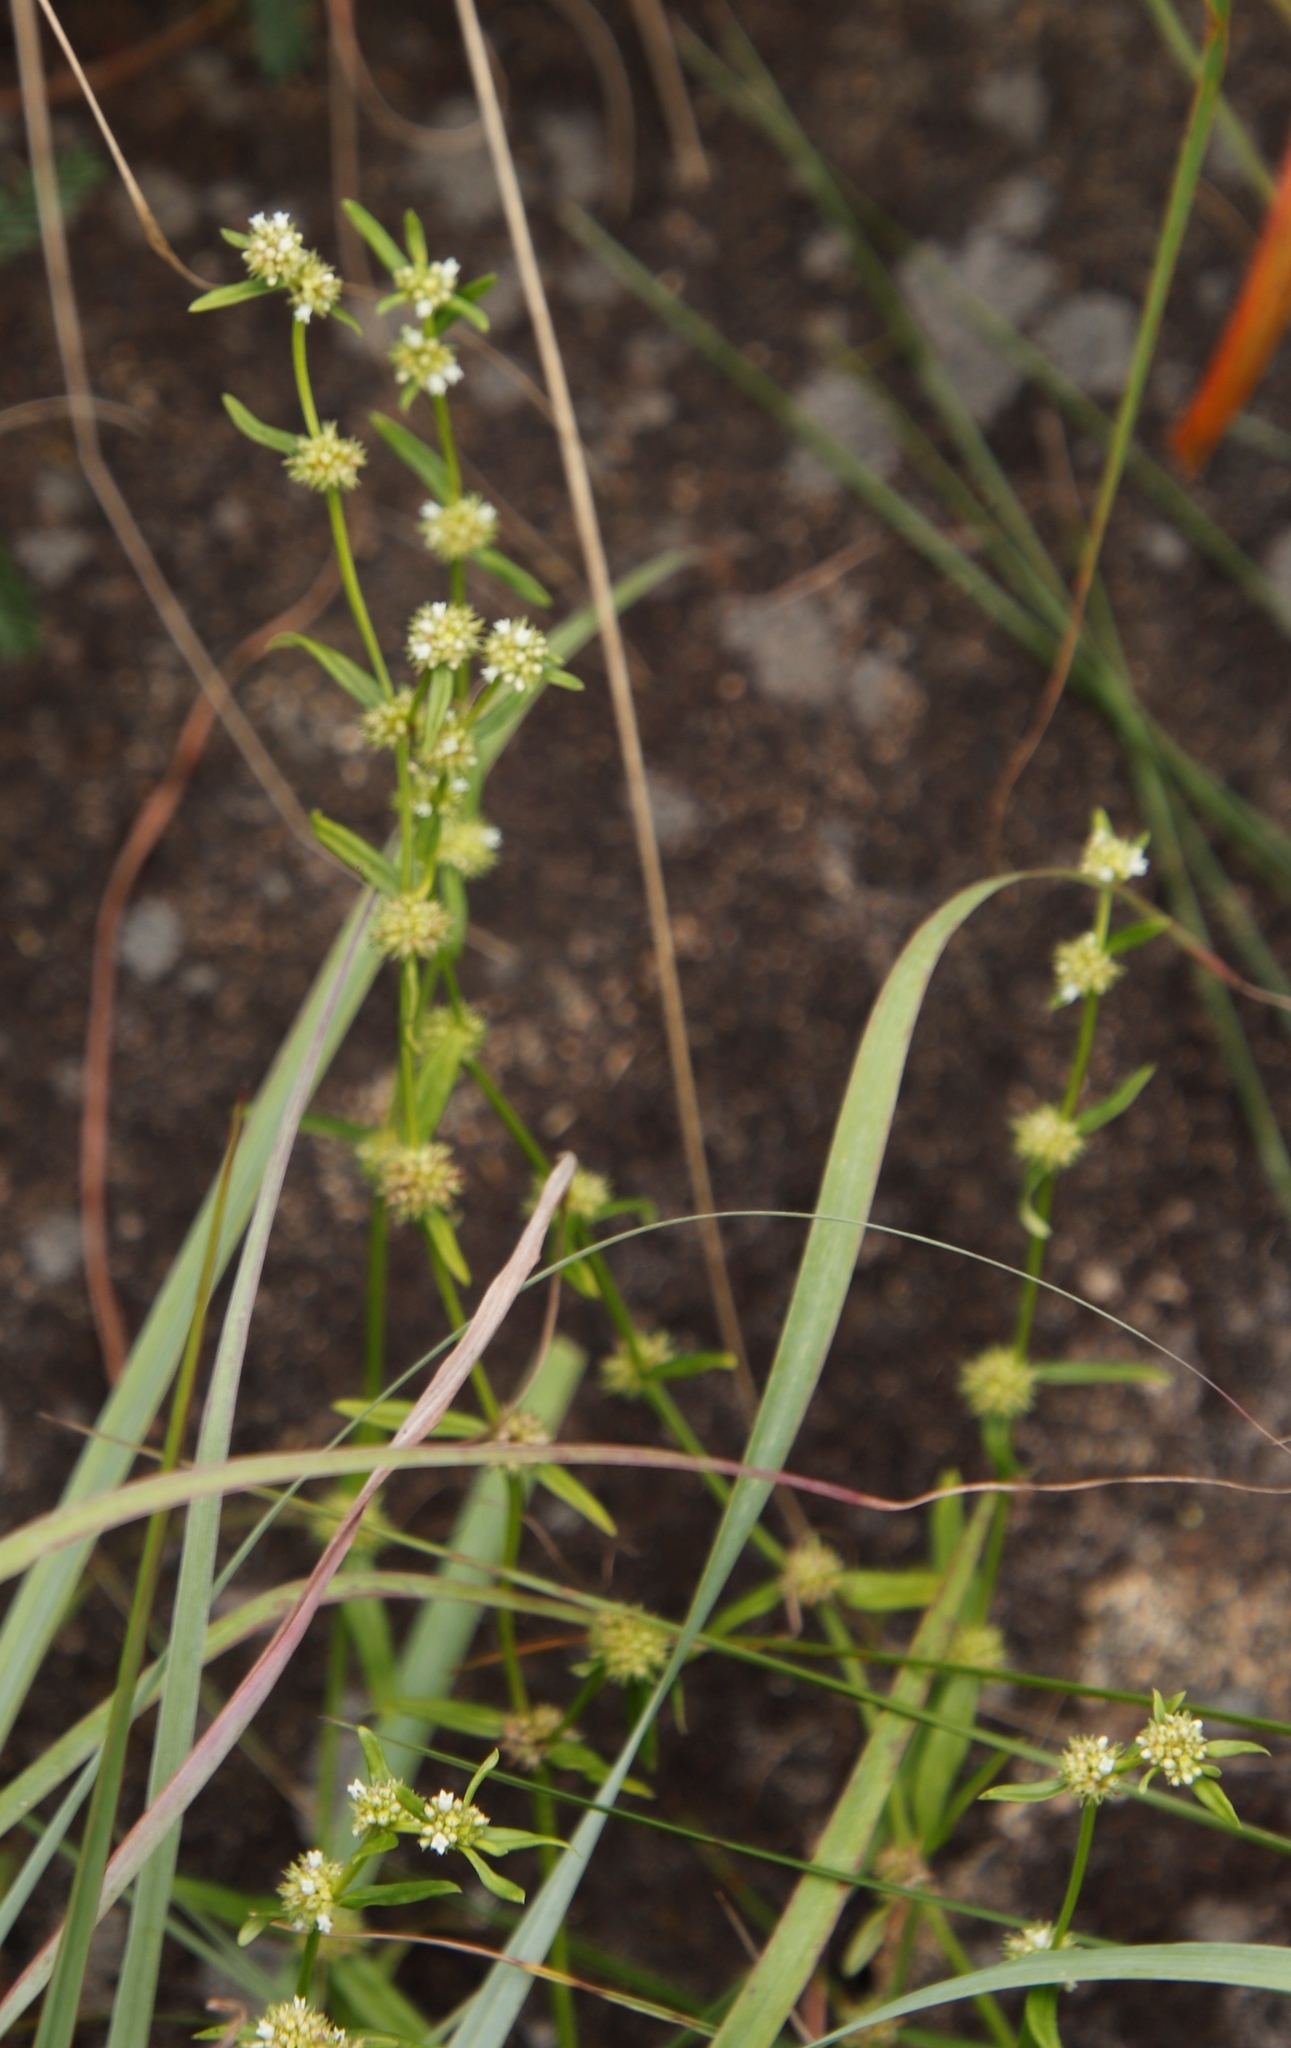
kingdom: Plantae
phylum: Tracheophyta
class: Magnoliopsida
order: Gentianales
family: Rubiaceae
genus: Spermacoce
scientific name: Spermacoce verticillata
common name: Shrubby false buttonweed
